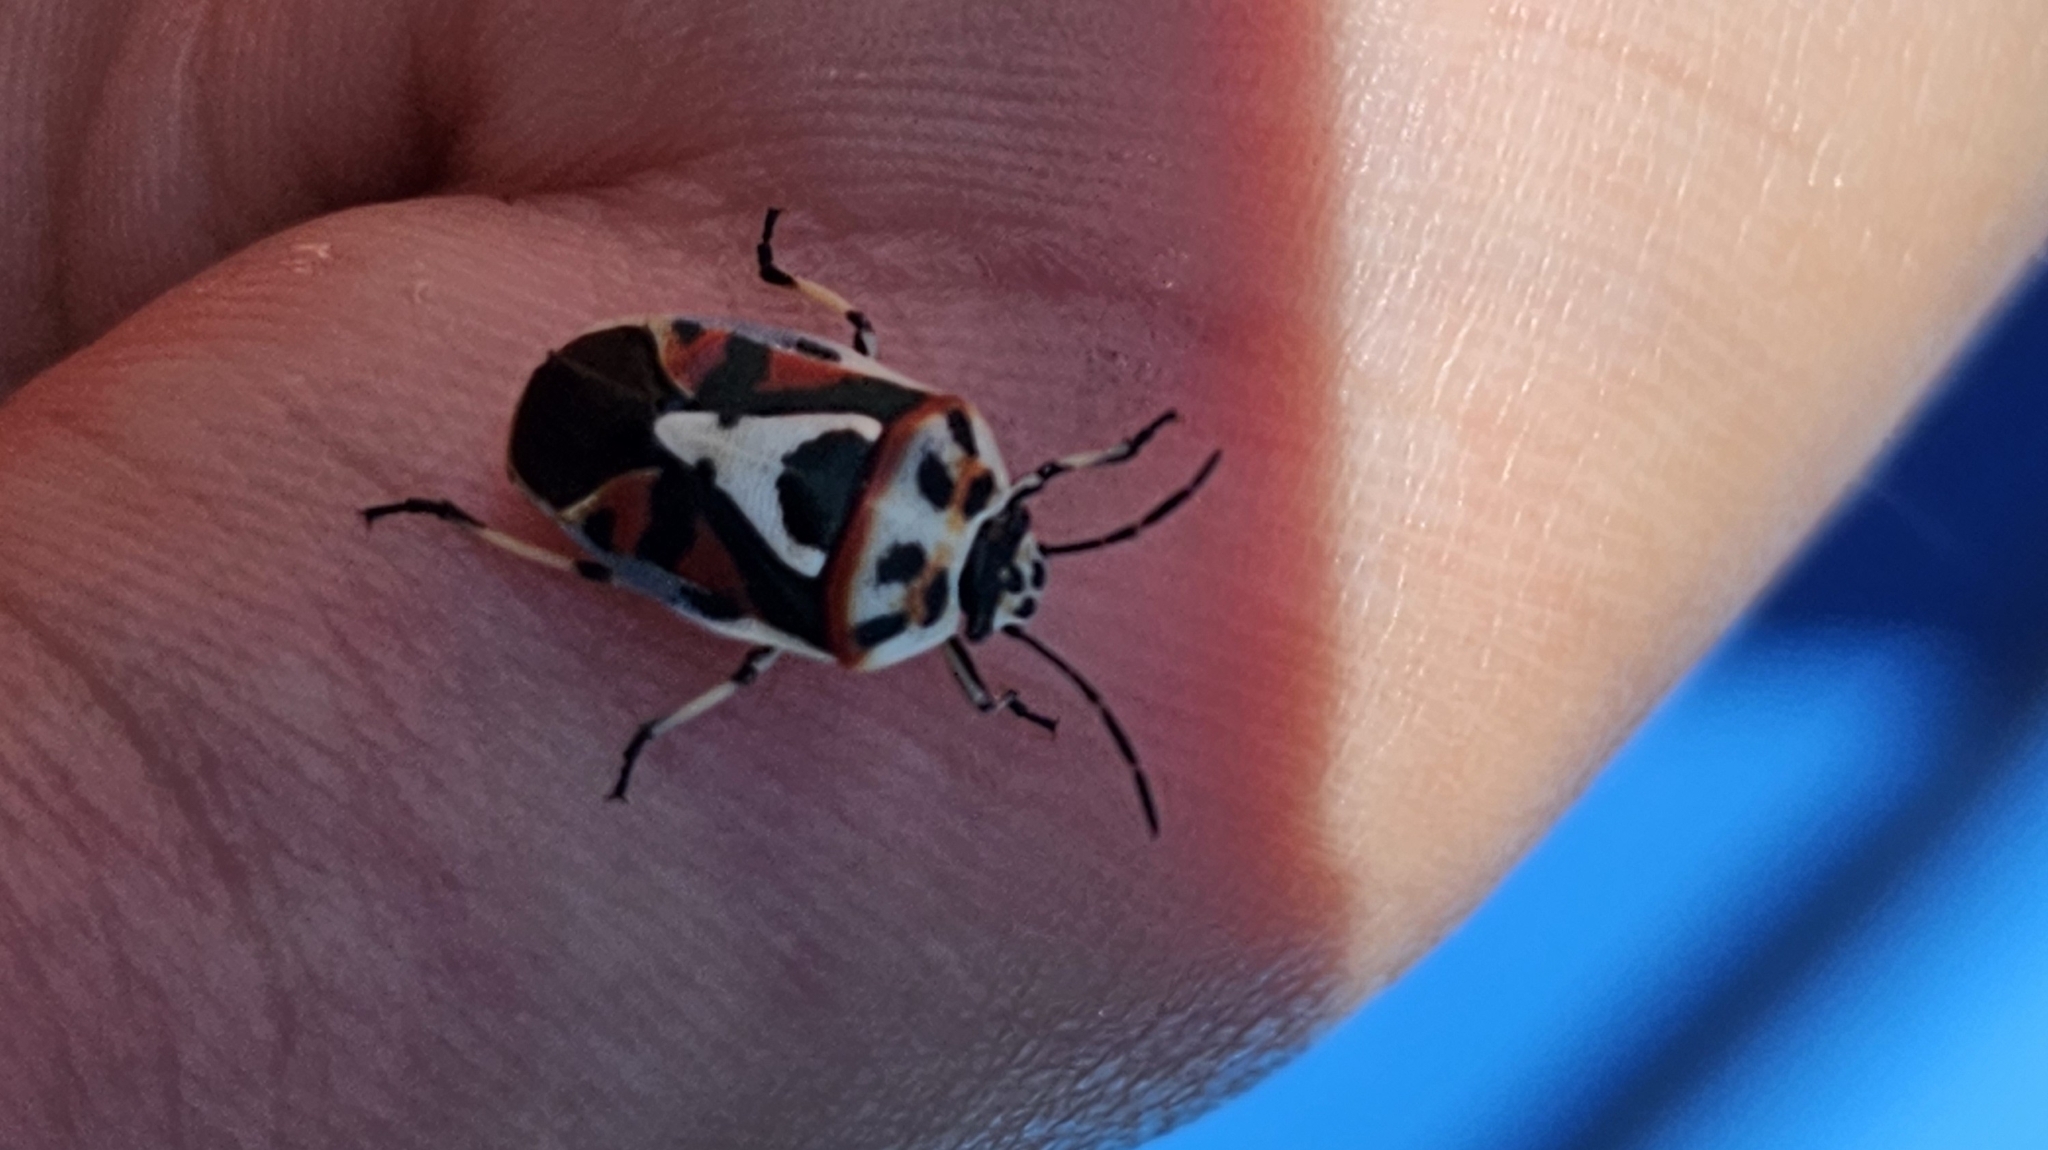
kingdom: Animalia
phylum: Arthropoda
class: Insecta
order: Hemiptera
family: Pentatomidae
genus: Eurydema
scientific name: Eurydema ornata
